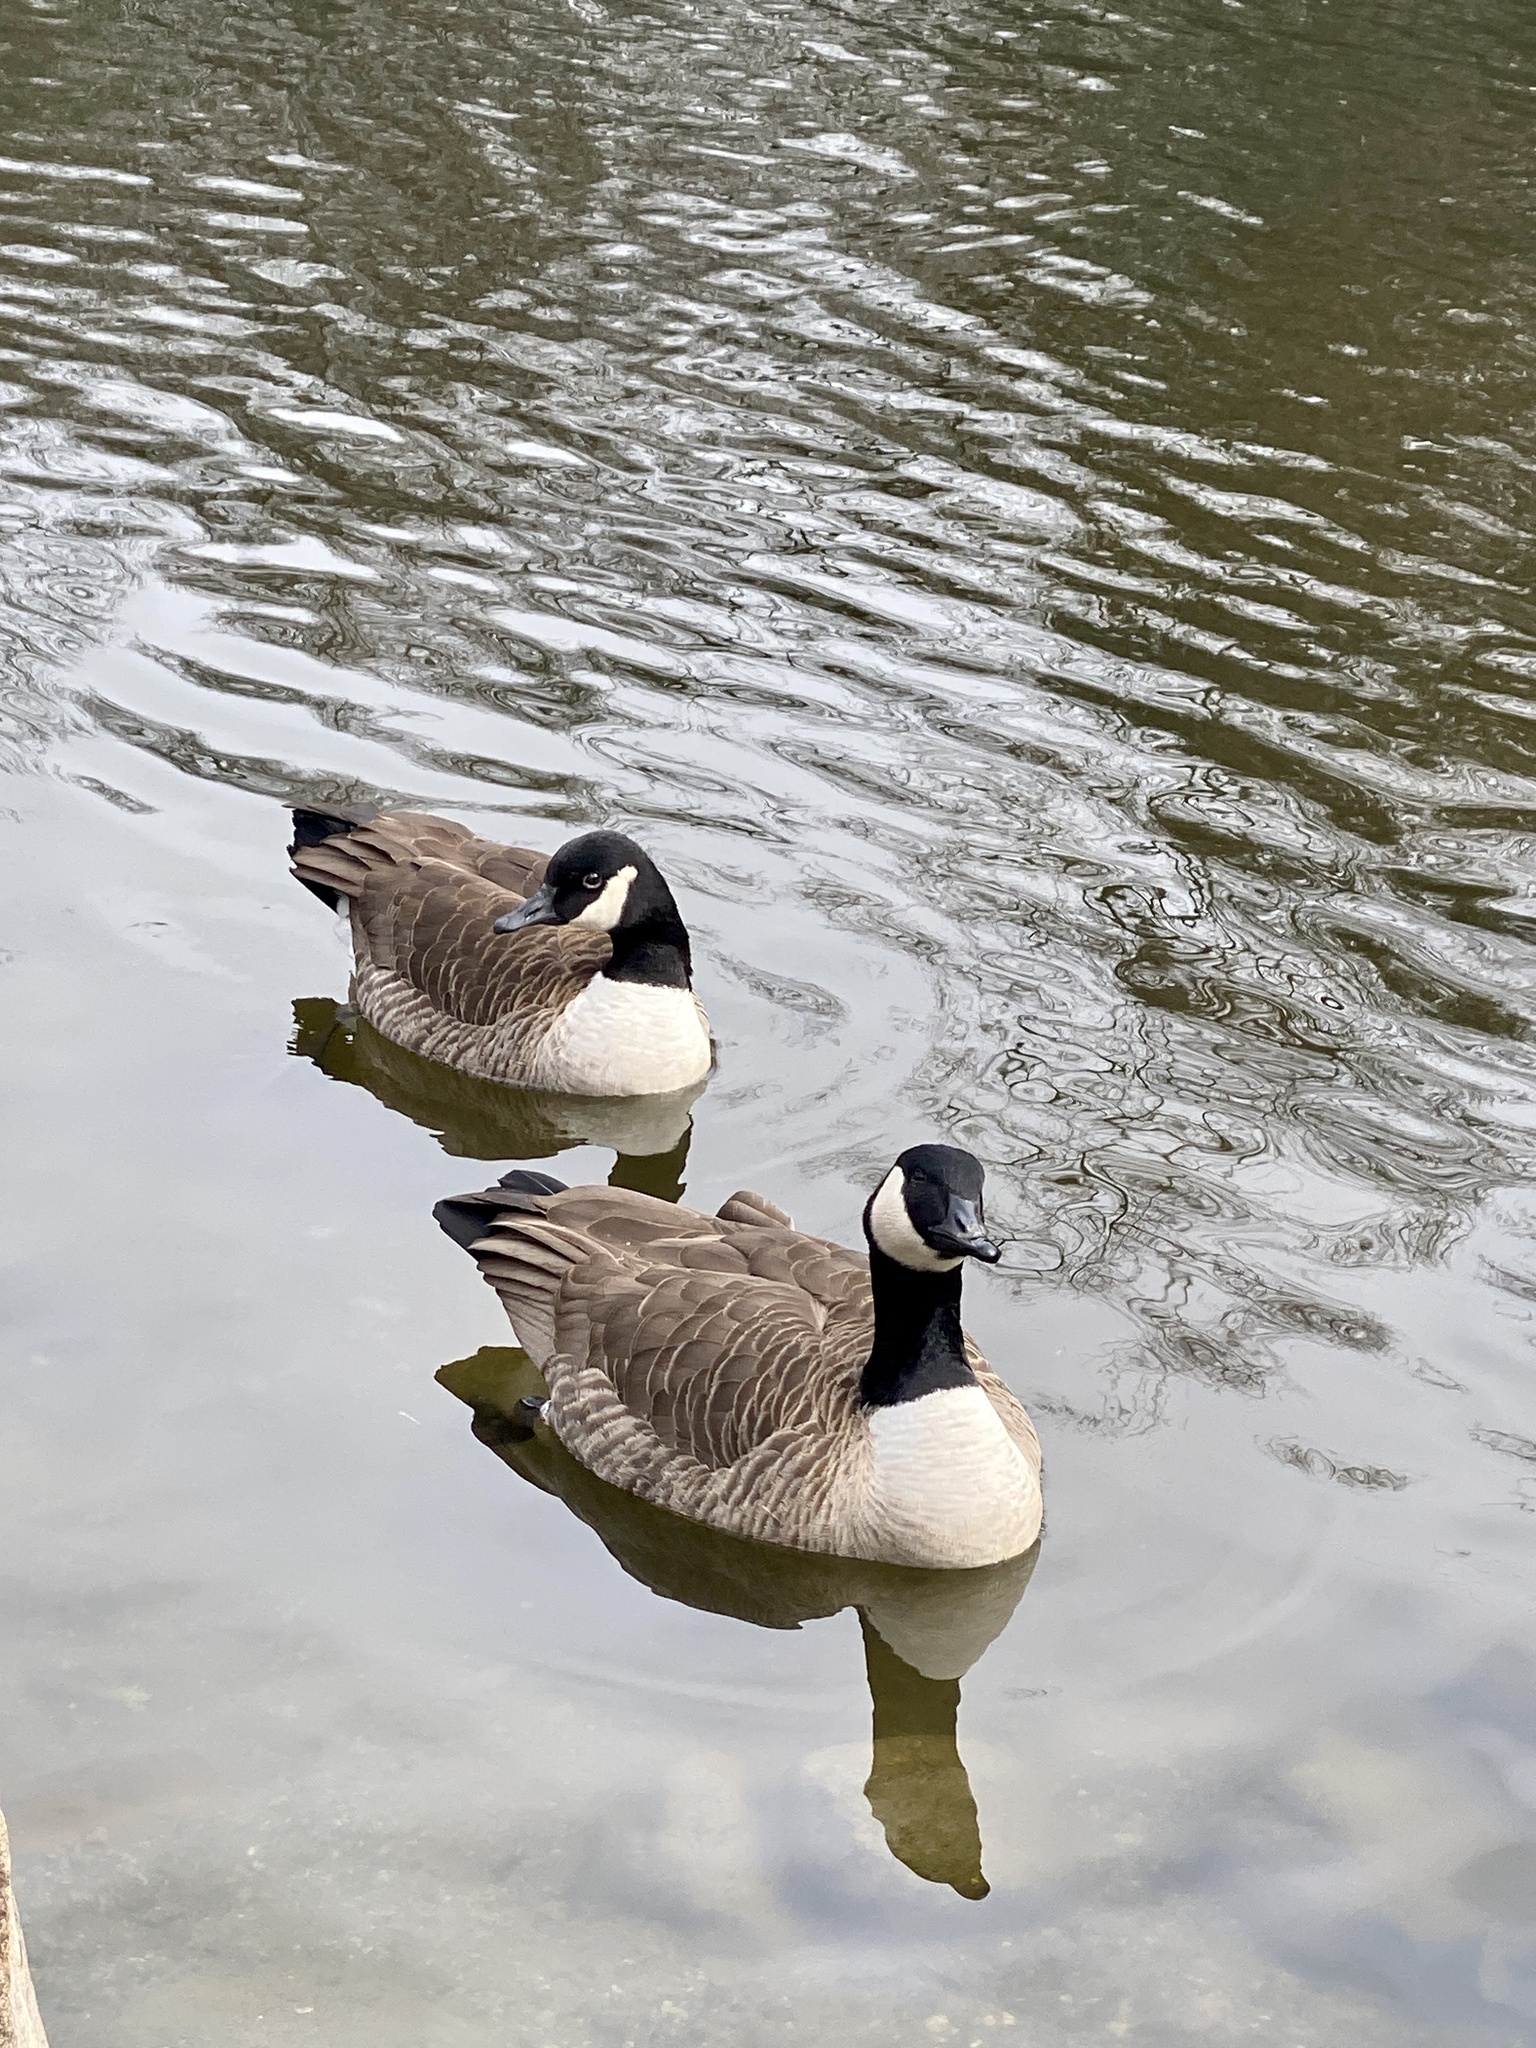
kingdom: Animalia
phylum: Chordata
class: Aves
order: Anseriformes
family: Anatidae
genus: Branta
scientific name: Branta canadensis
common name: Canada goose
